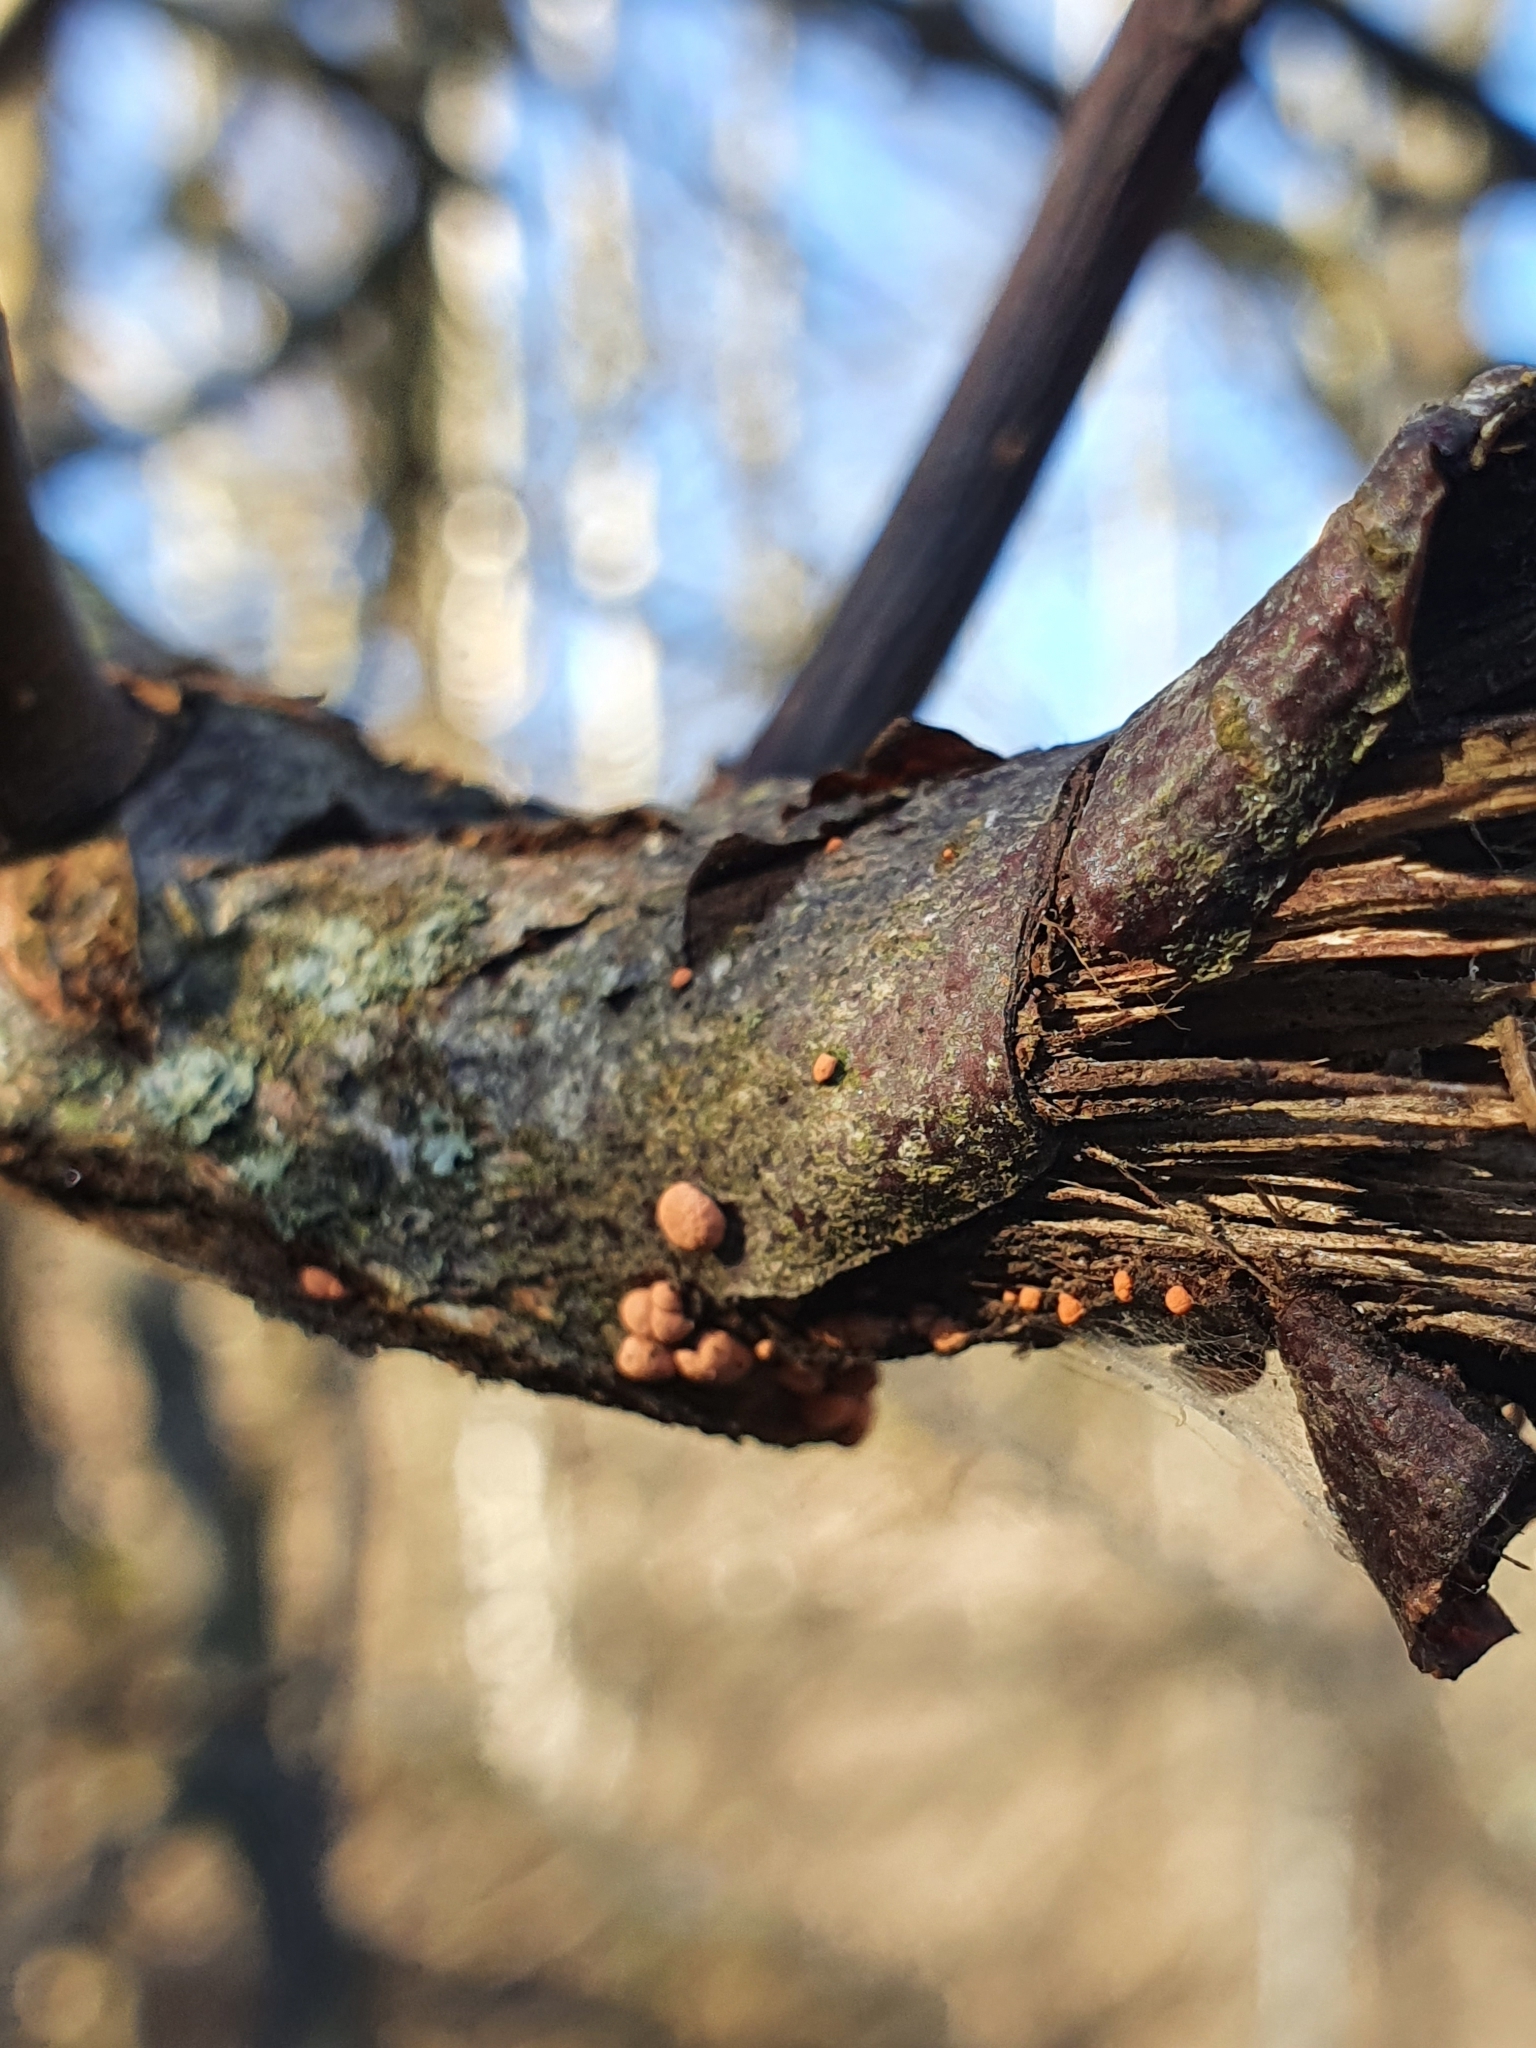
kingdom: Fungi
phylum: Ascomycota
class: Sordariomycetes
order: Hypocreales
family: Nectriaceae
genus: Nectria
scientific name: Nectria cinnabarina
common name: Coral spot
